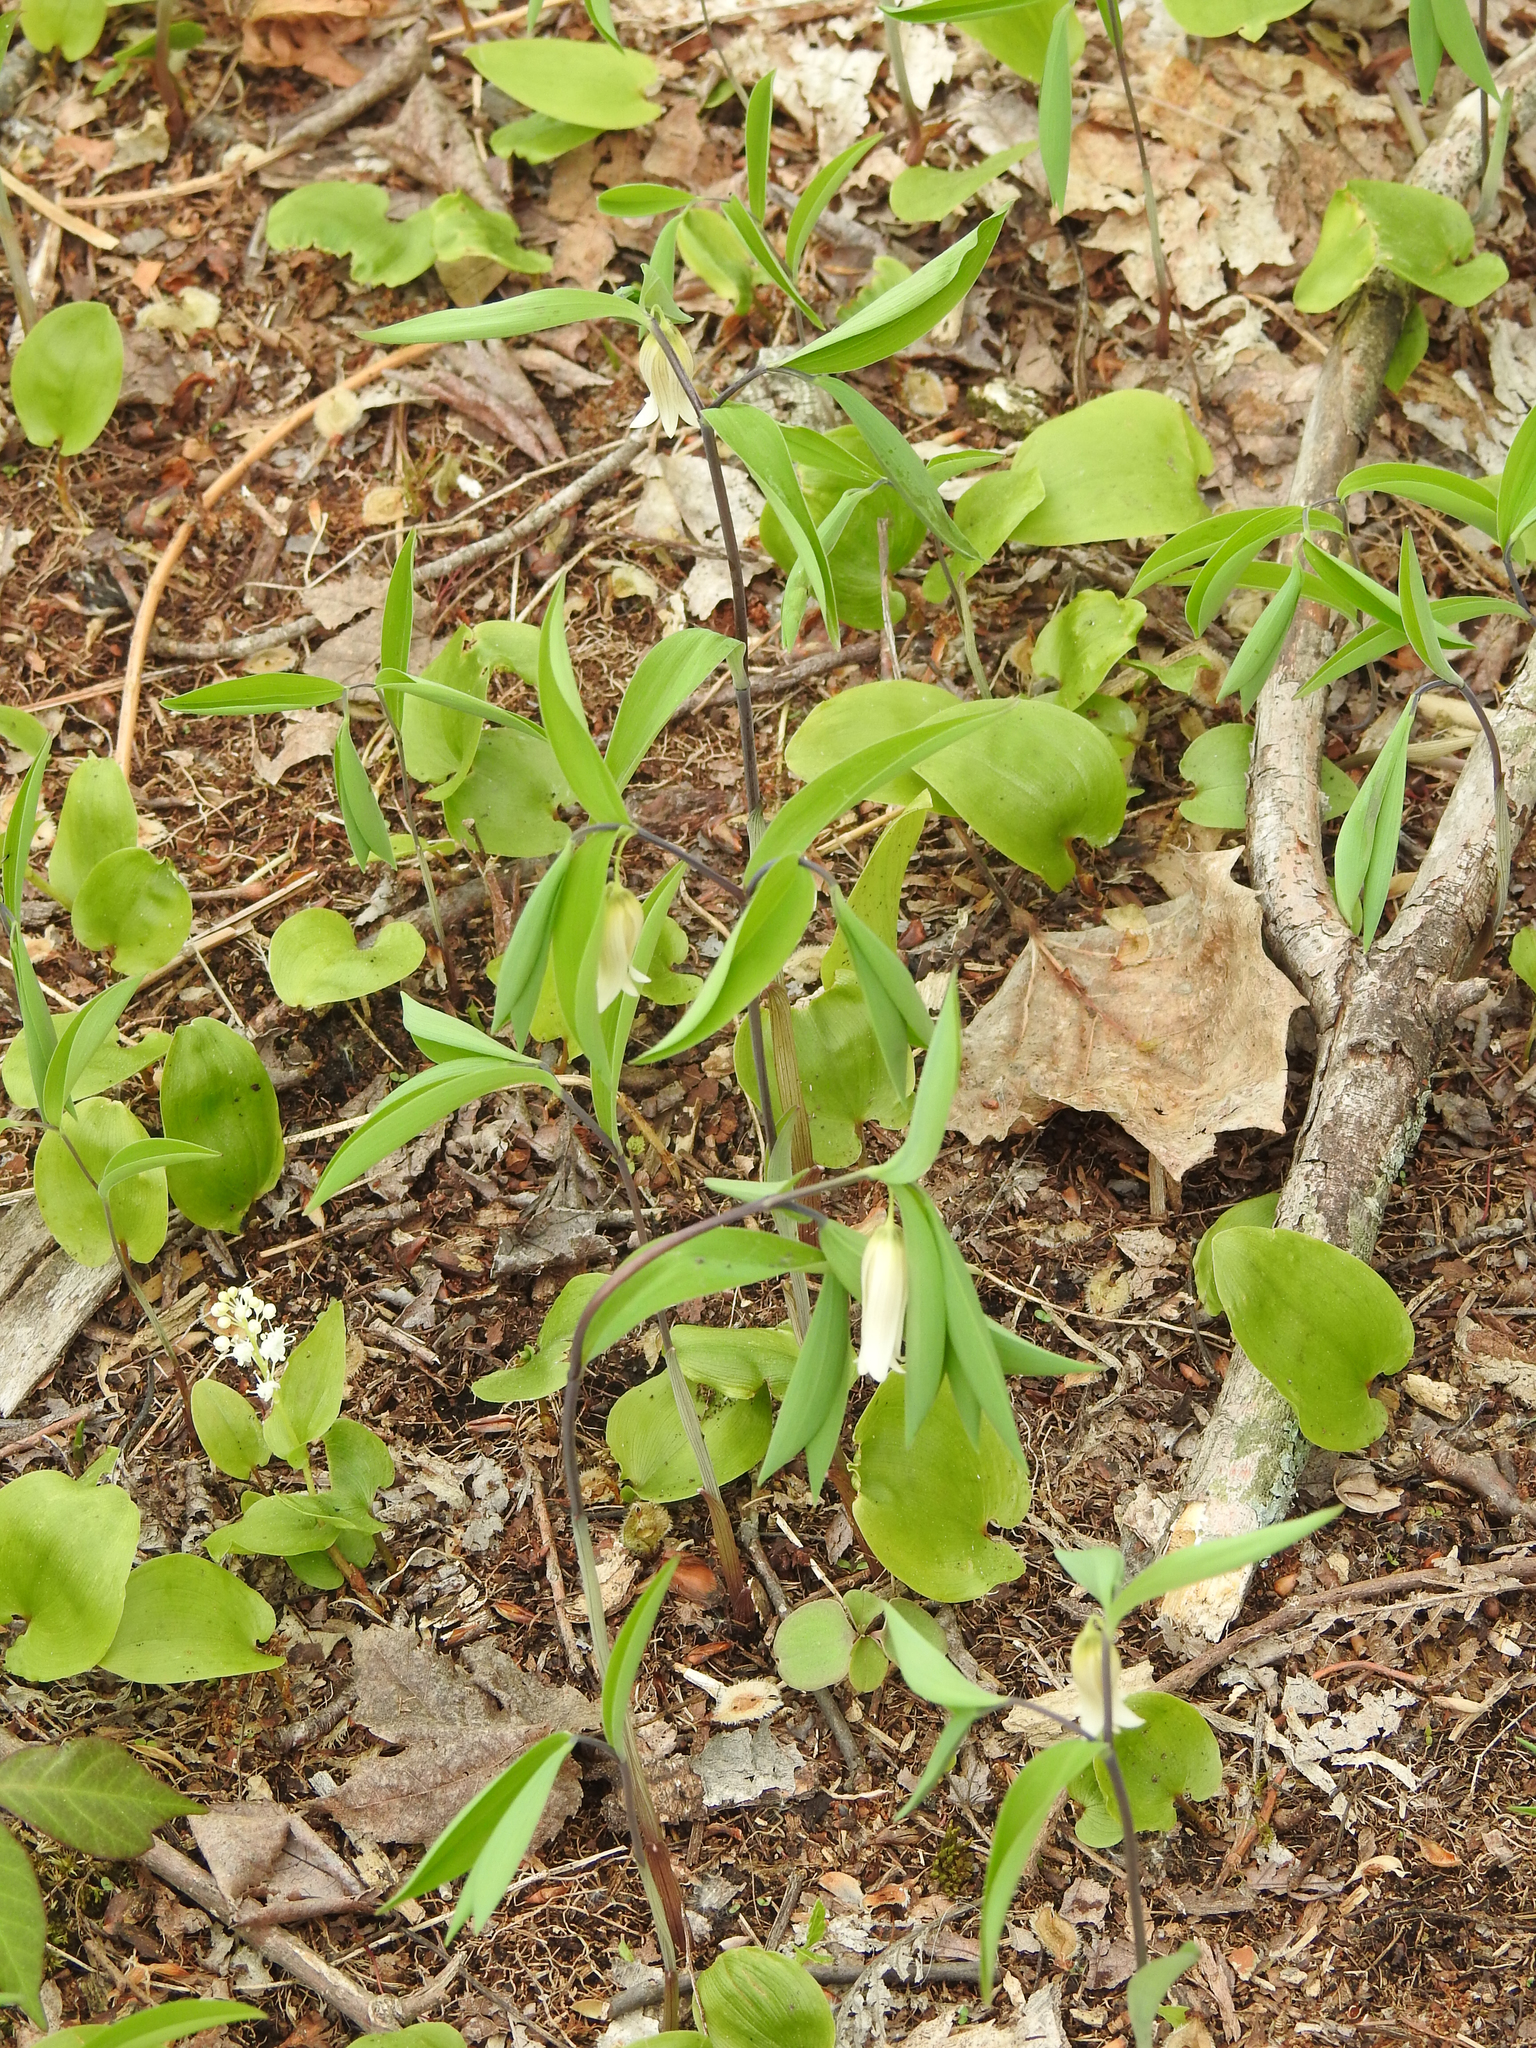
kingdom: Plantae
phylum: Tracheophyta
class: Liliopsida
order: Liliales
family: Colchicaceae
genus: Uvularia
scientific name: Uvularia sessilifolia
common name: Straw-lily
